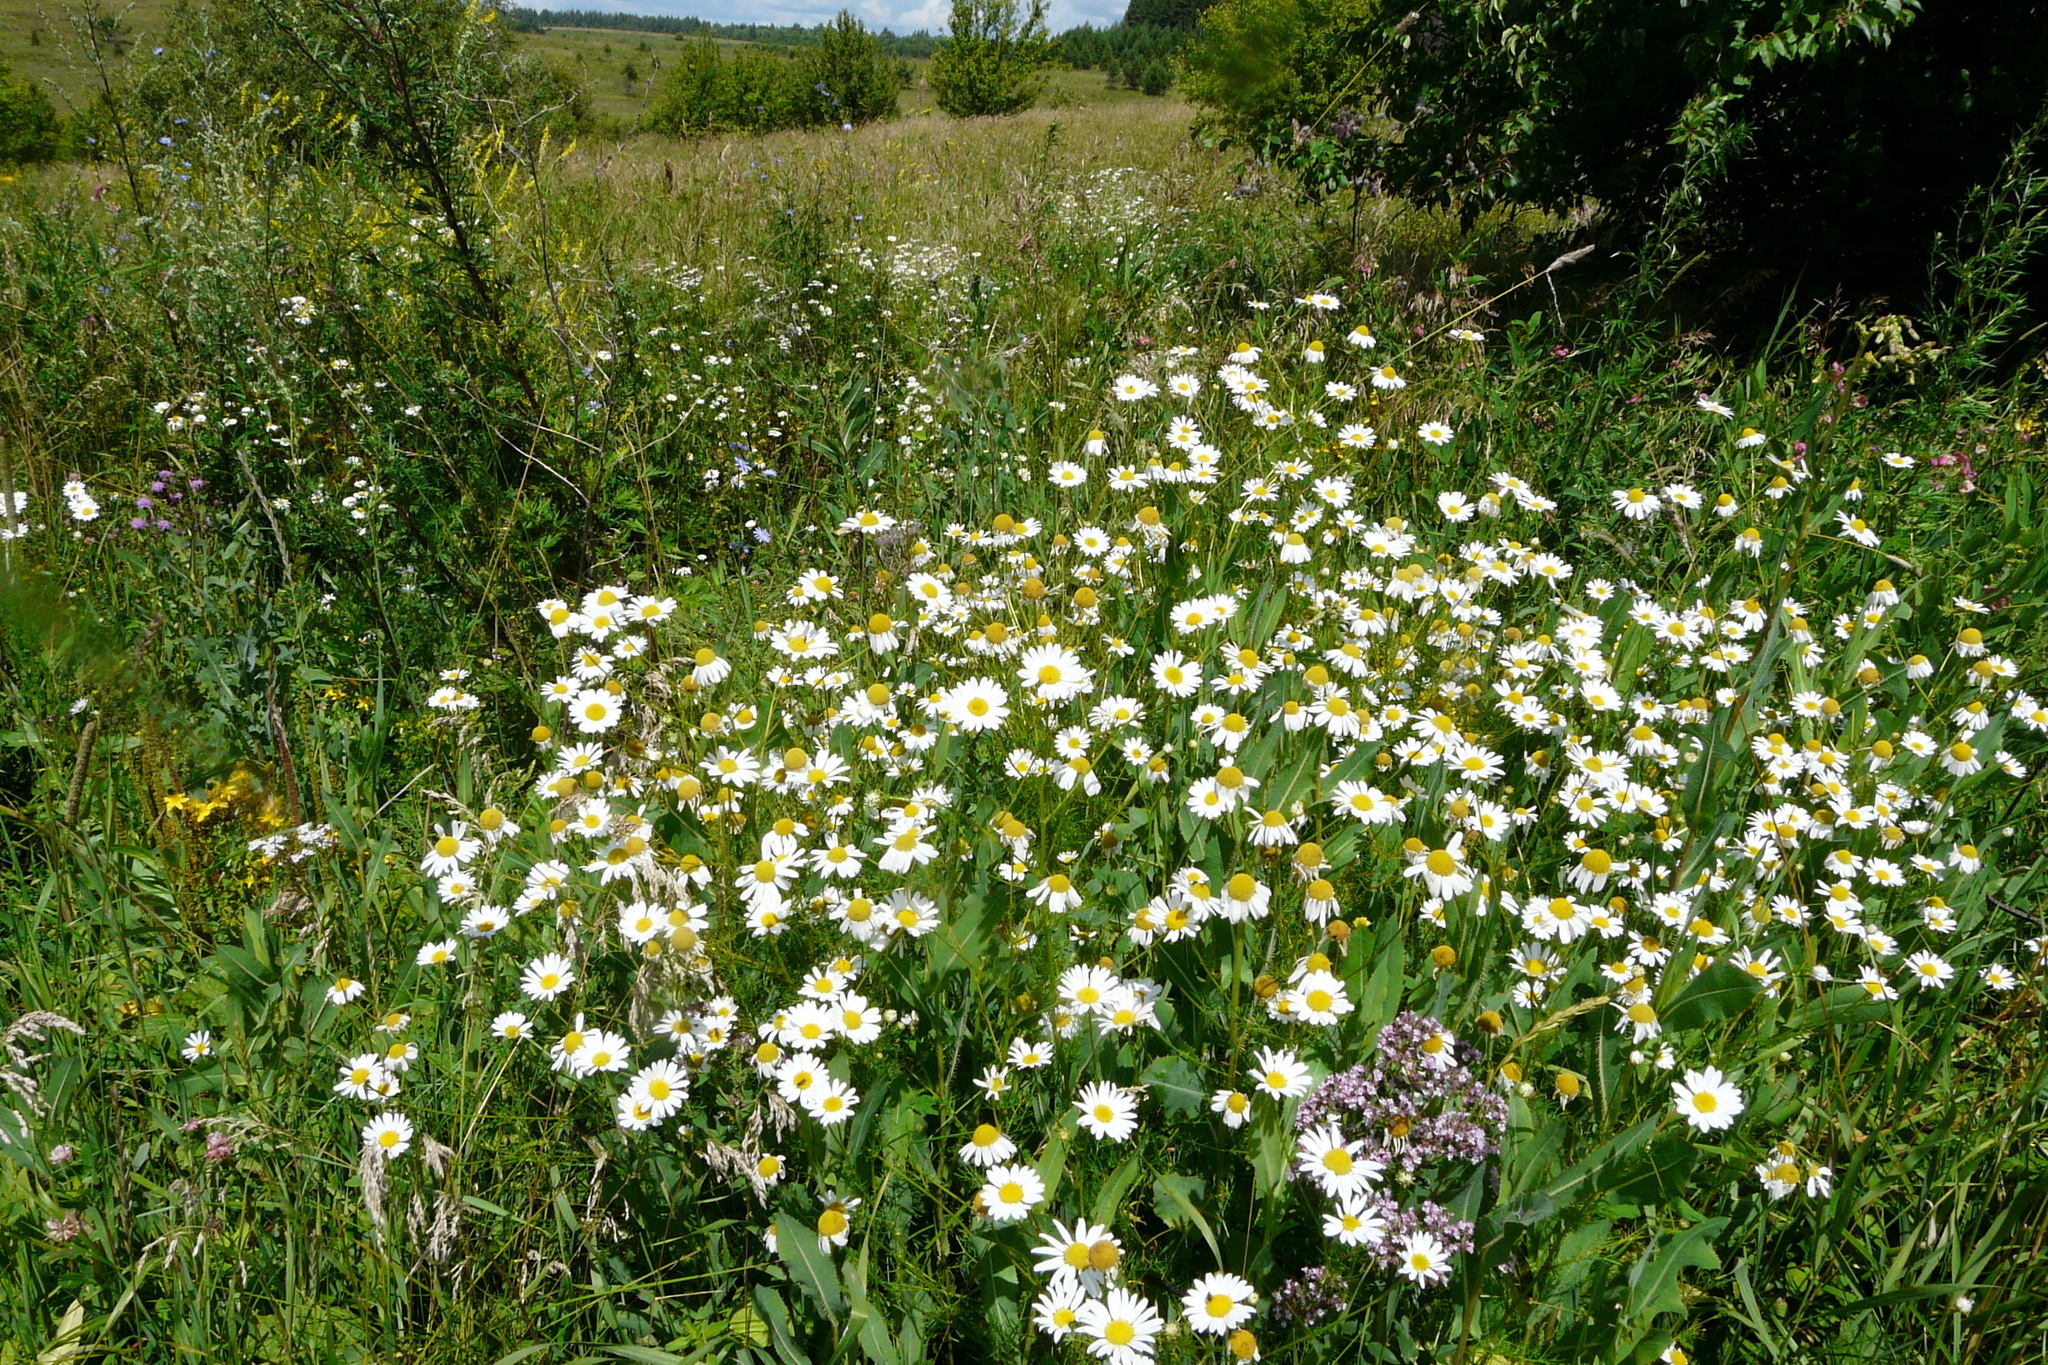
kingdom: Plantae
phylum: Tracheophyta
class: Magnoliopsida
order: Asterales
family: Asteraceae
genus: Tripleurospermum
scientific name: Tripleurospermum inodorum
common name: Scentless mayweed
